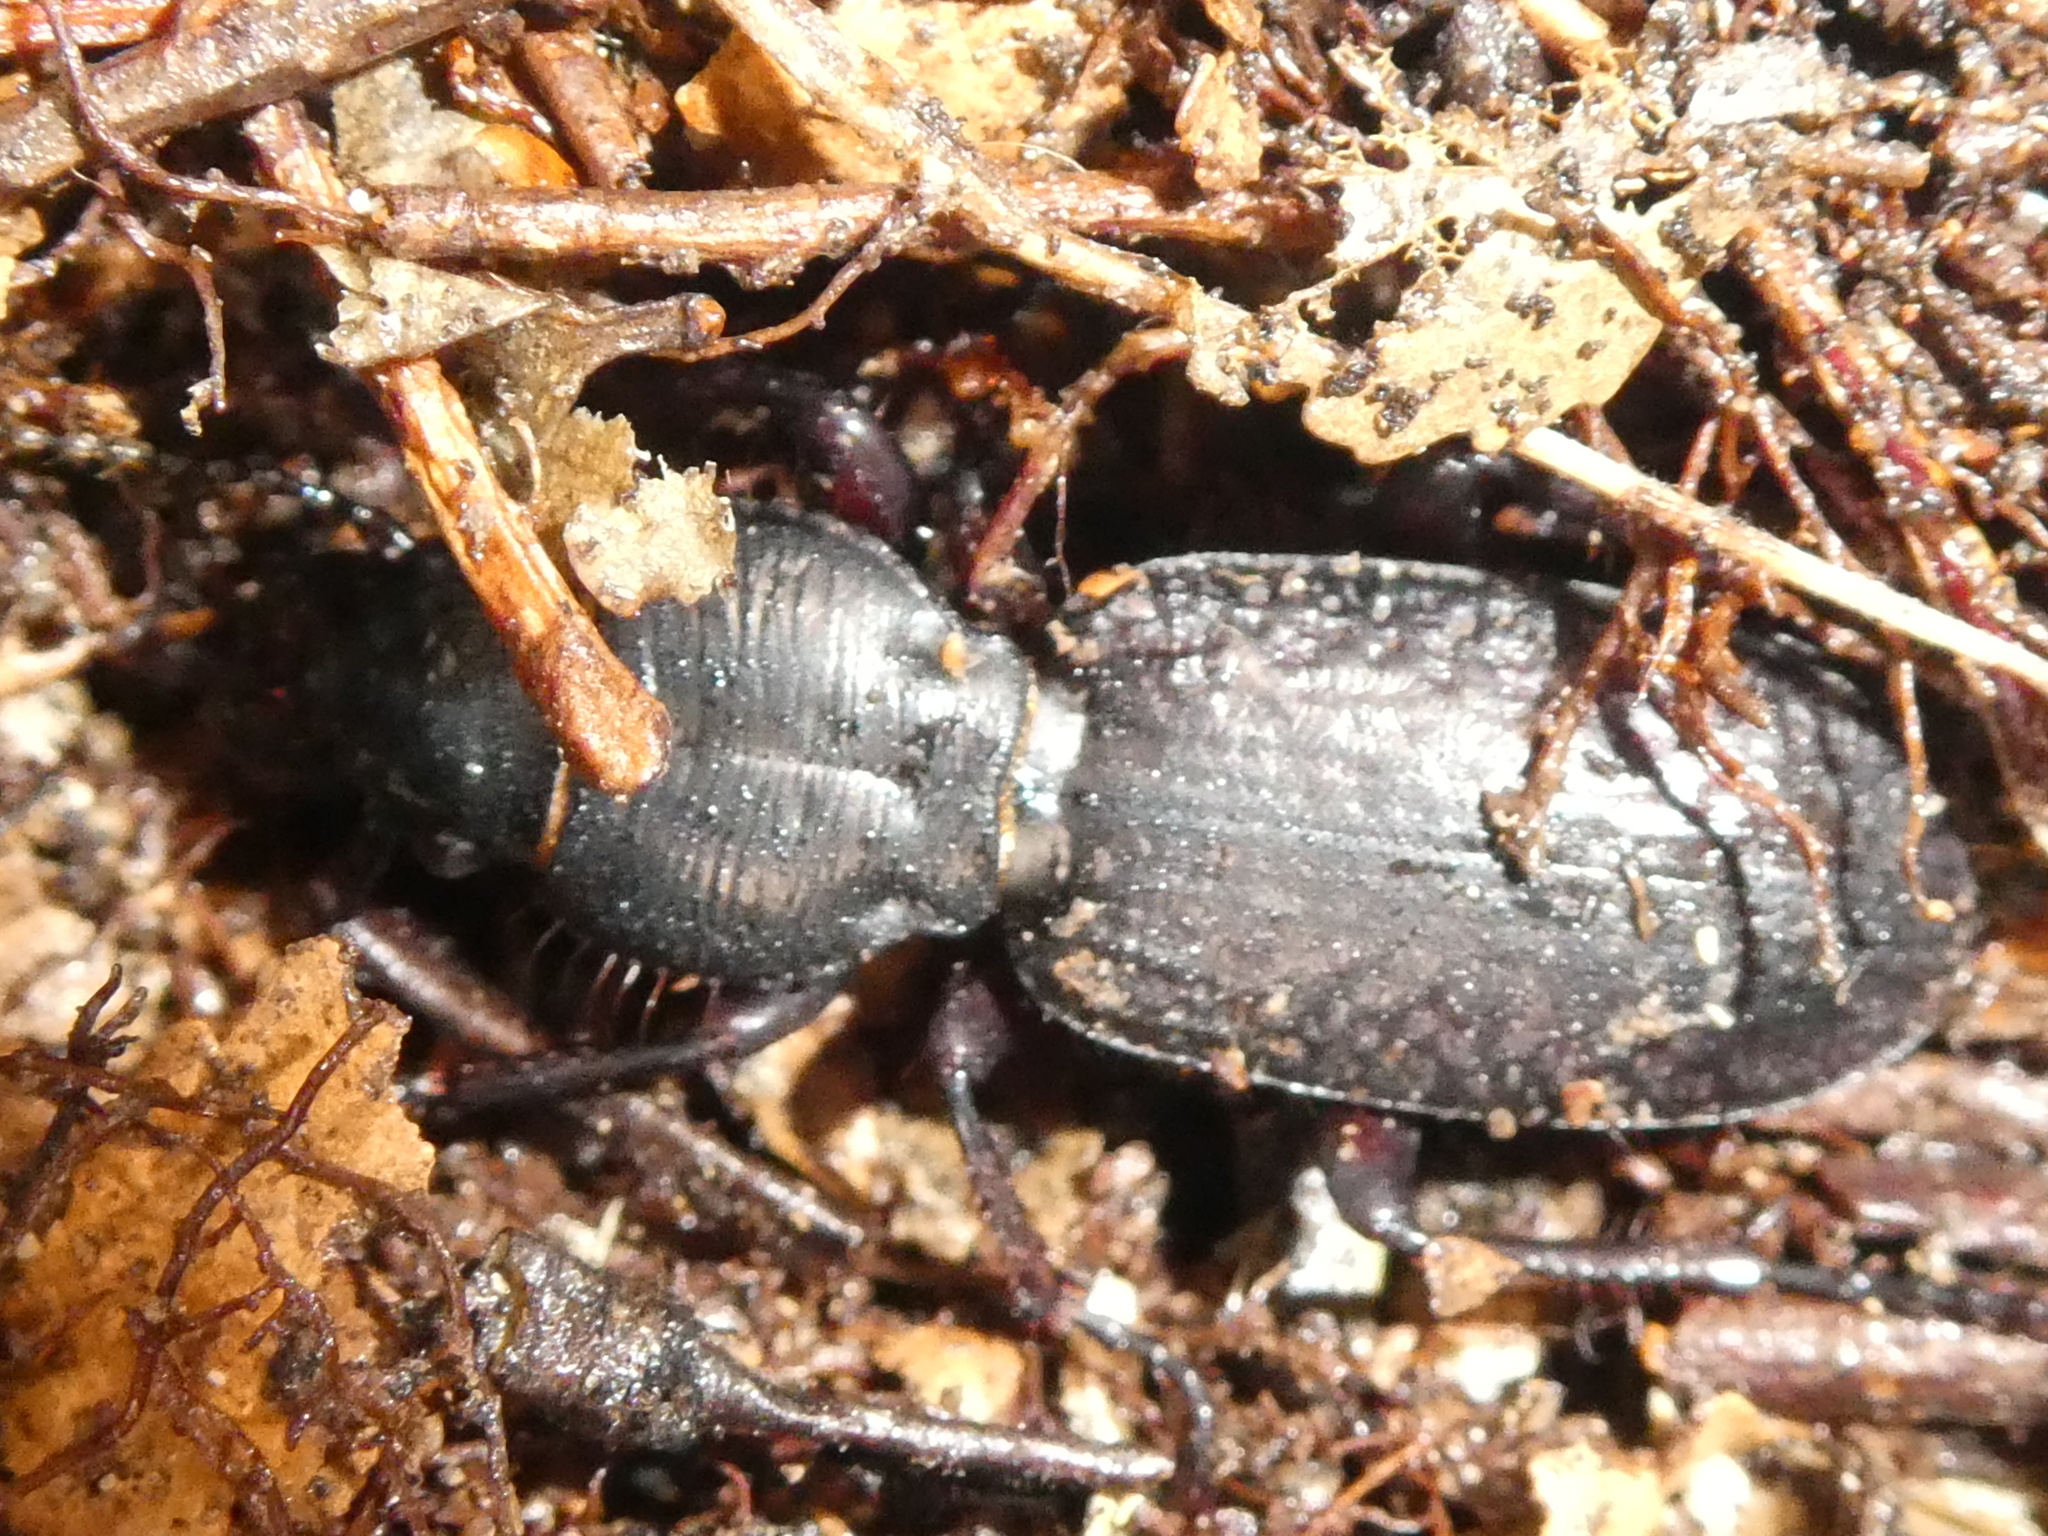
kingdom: Animalia
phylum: Arthropoda
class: Insecta
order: Coleoptera
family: Carabidae
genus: Mecodema
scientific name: Mecodema crenicolle
